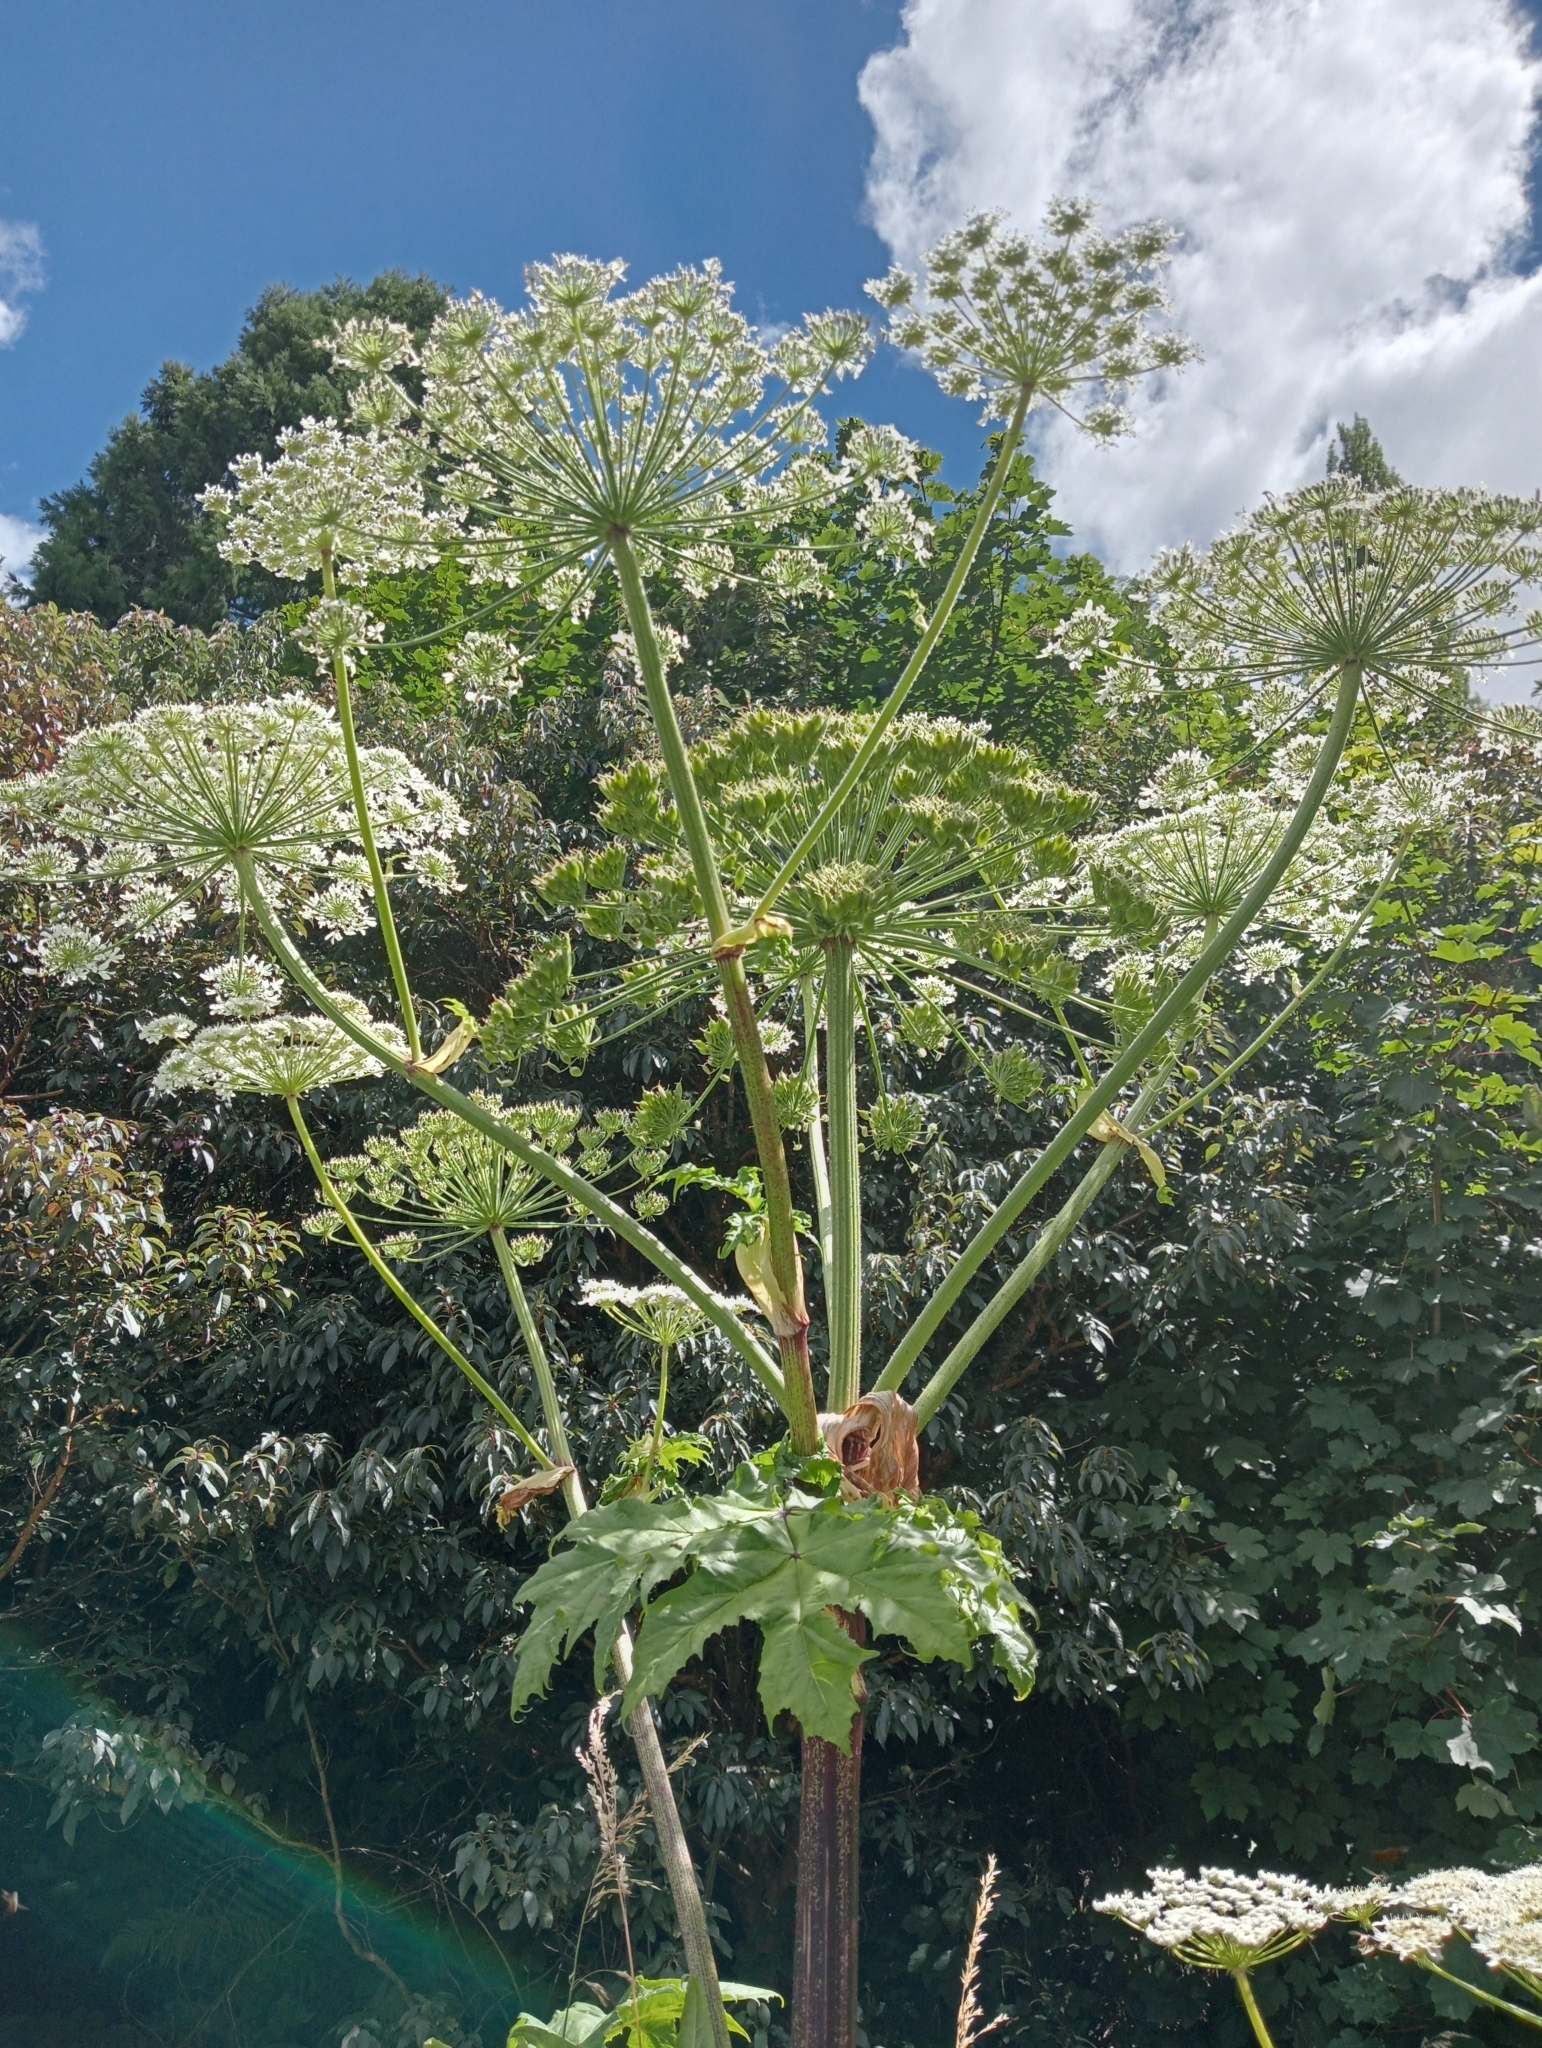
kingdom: Plantae
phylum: Tracheophyta
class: Magnoliopsida
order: Apiales
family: Apiaceae
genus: Heracleum
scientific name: Heracleum mantegazzianum
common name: Giant hogweed
